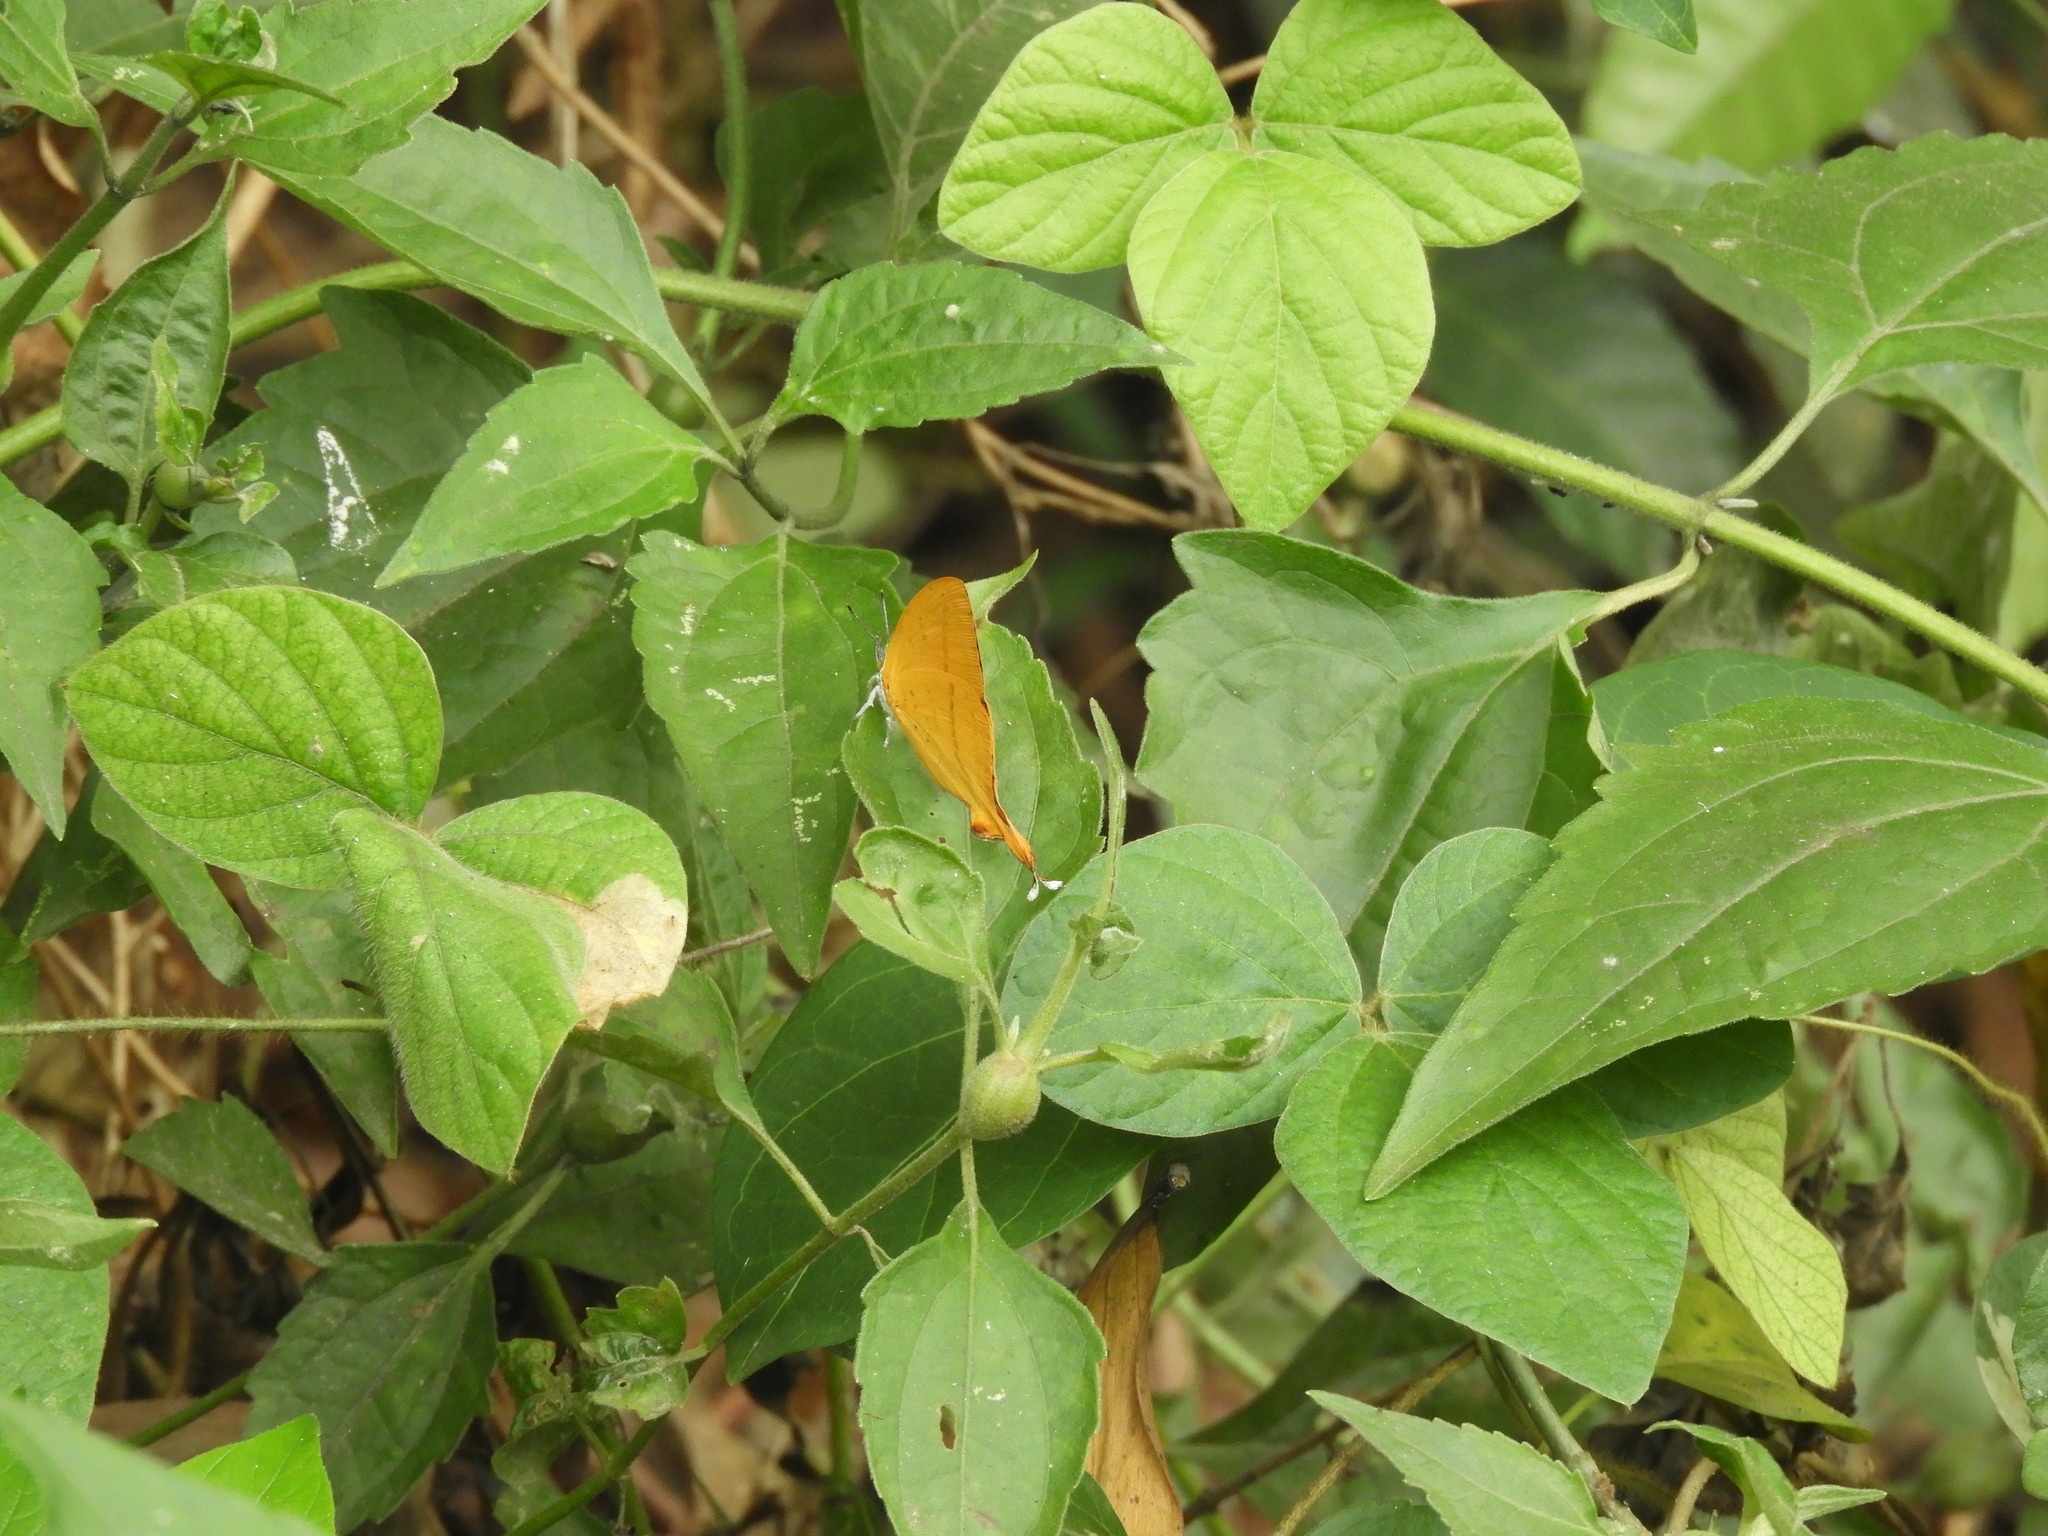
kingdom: Animalia
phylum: Arthropoda
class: Insecta
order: Lepidoptera
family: Lycaenidae
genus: Loxura
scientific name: Loxura atymnus
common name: Common yamfly
